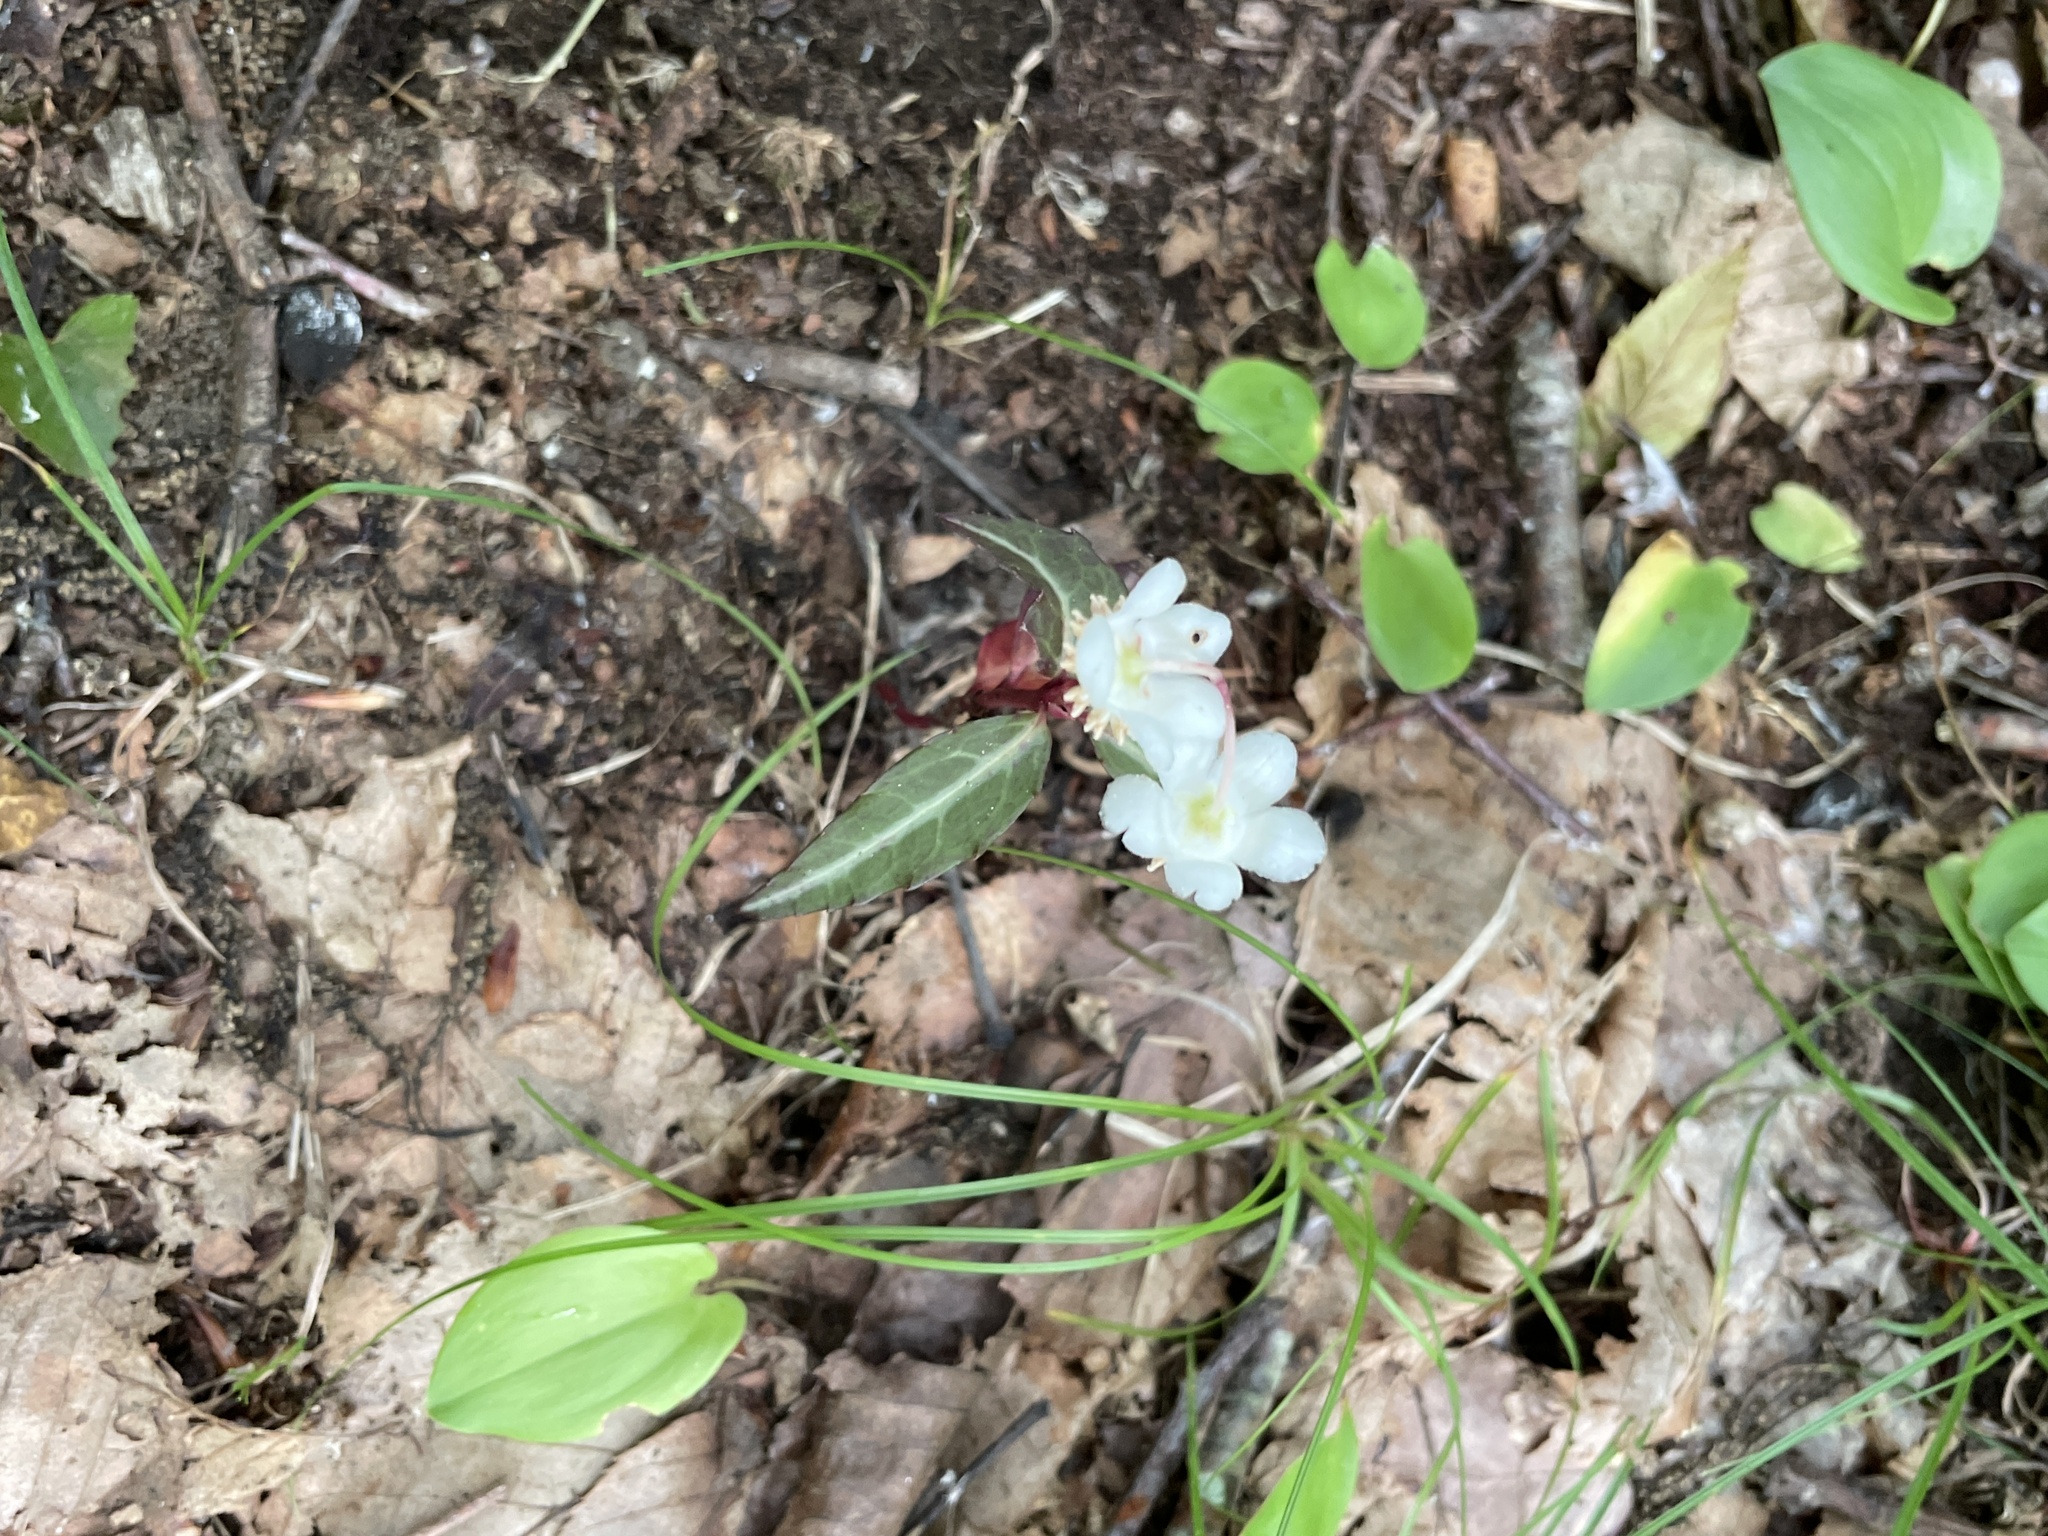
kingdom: Plantae
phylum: Tracheophyta
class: Magnoliopsida
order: Ericales
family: Ericaceae
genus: Chimaphila
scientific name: Chimaphila maculata
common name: Spotted pipsissewa
